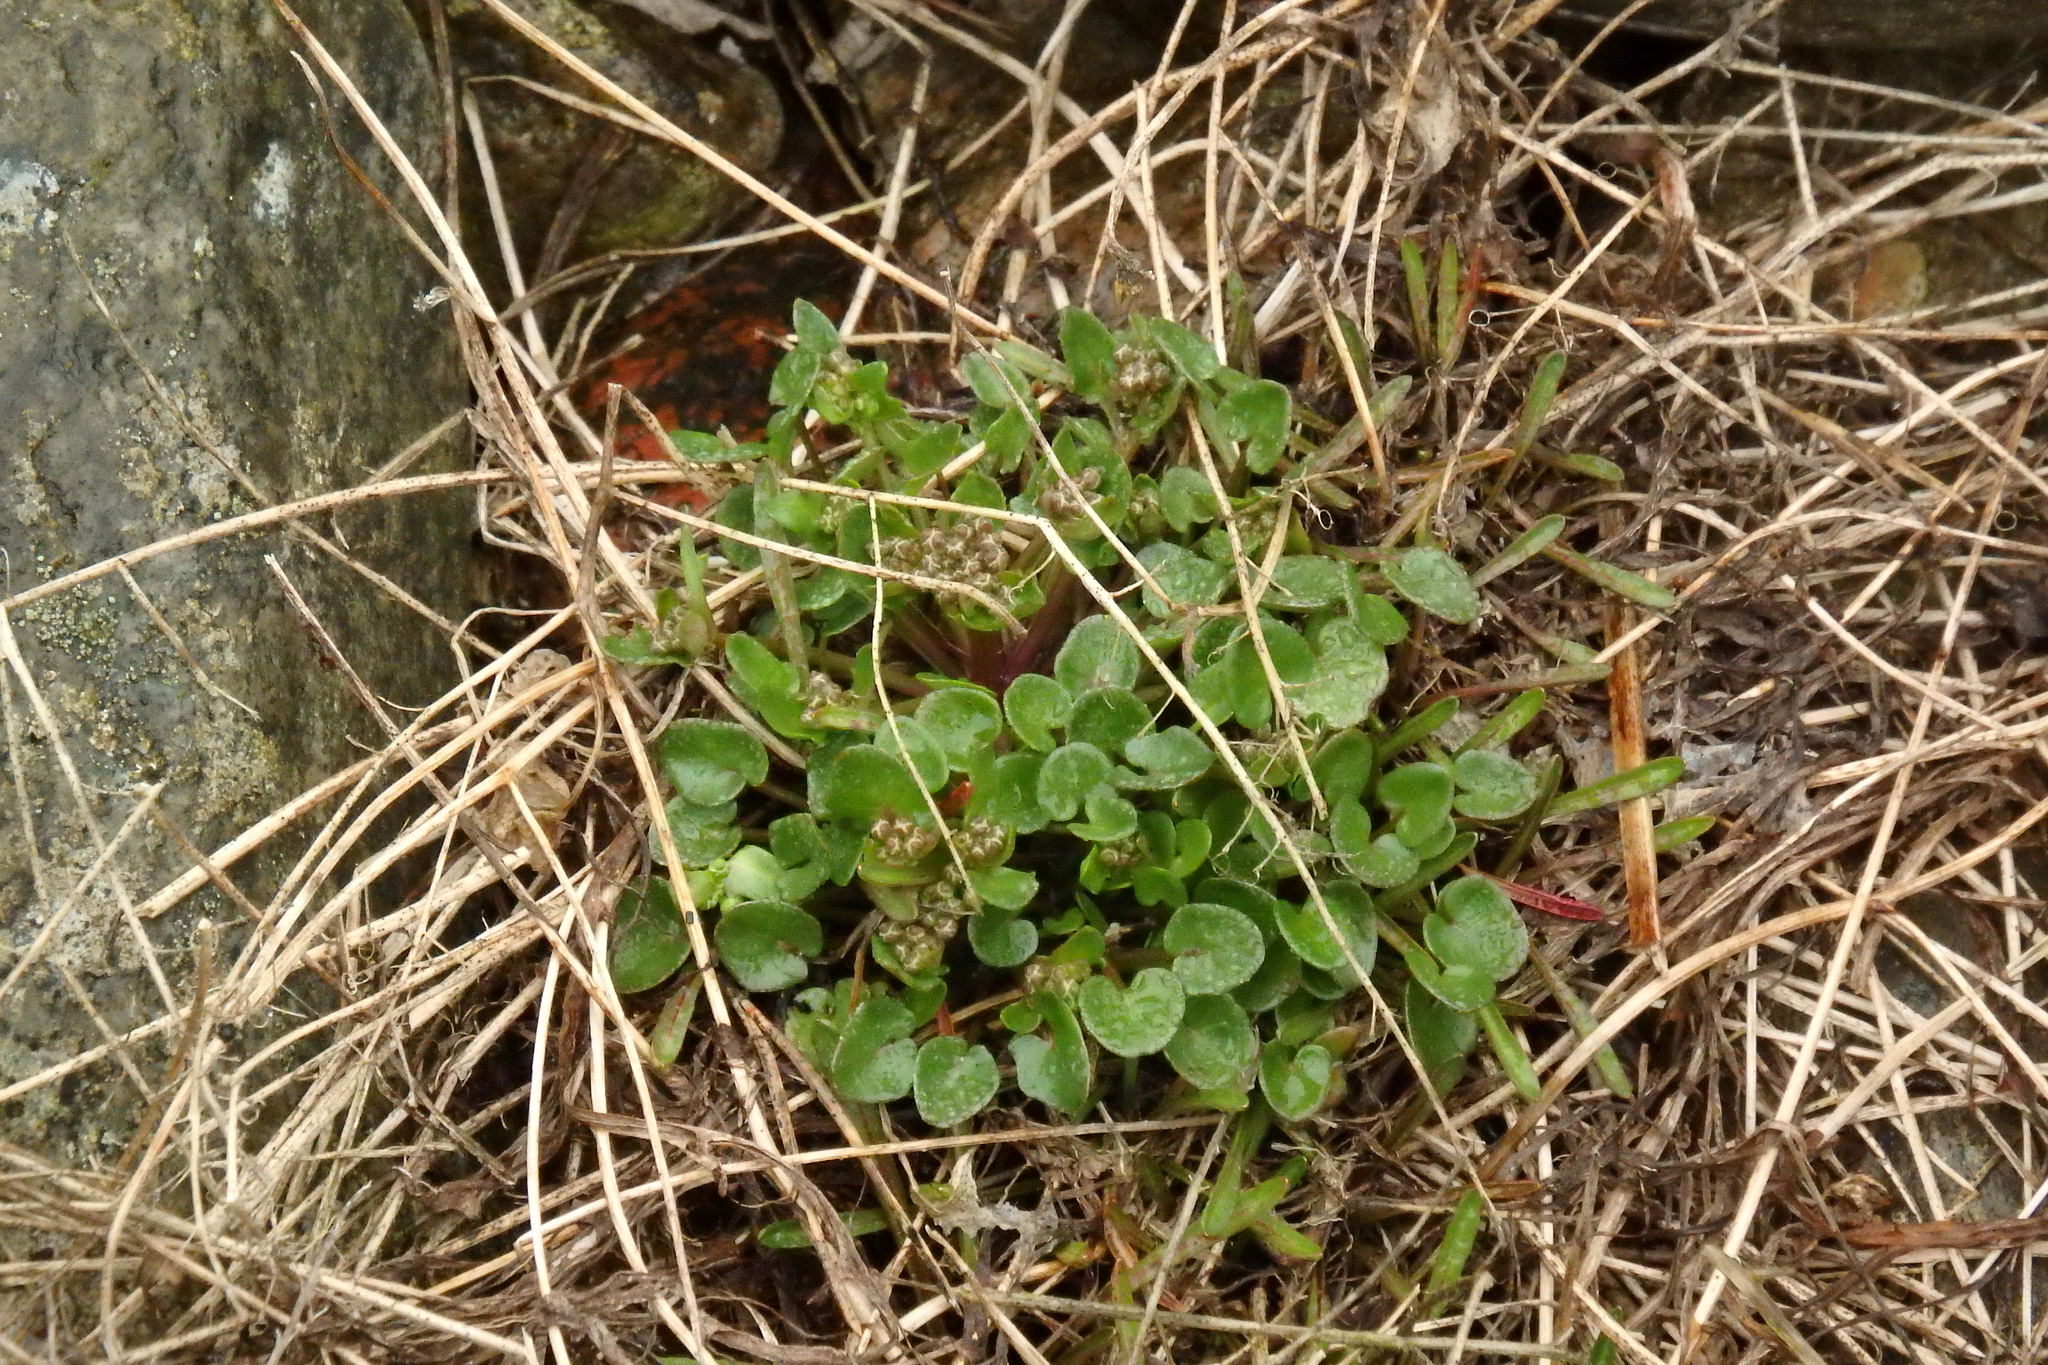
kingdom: Plantae
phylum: Tracheophyta
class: Magnoliopsida
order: Brassicales
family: Brassicaceae
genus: Cochlearia
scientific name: Cochlearia officinalis
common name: Scurvy-grass
